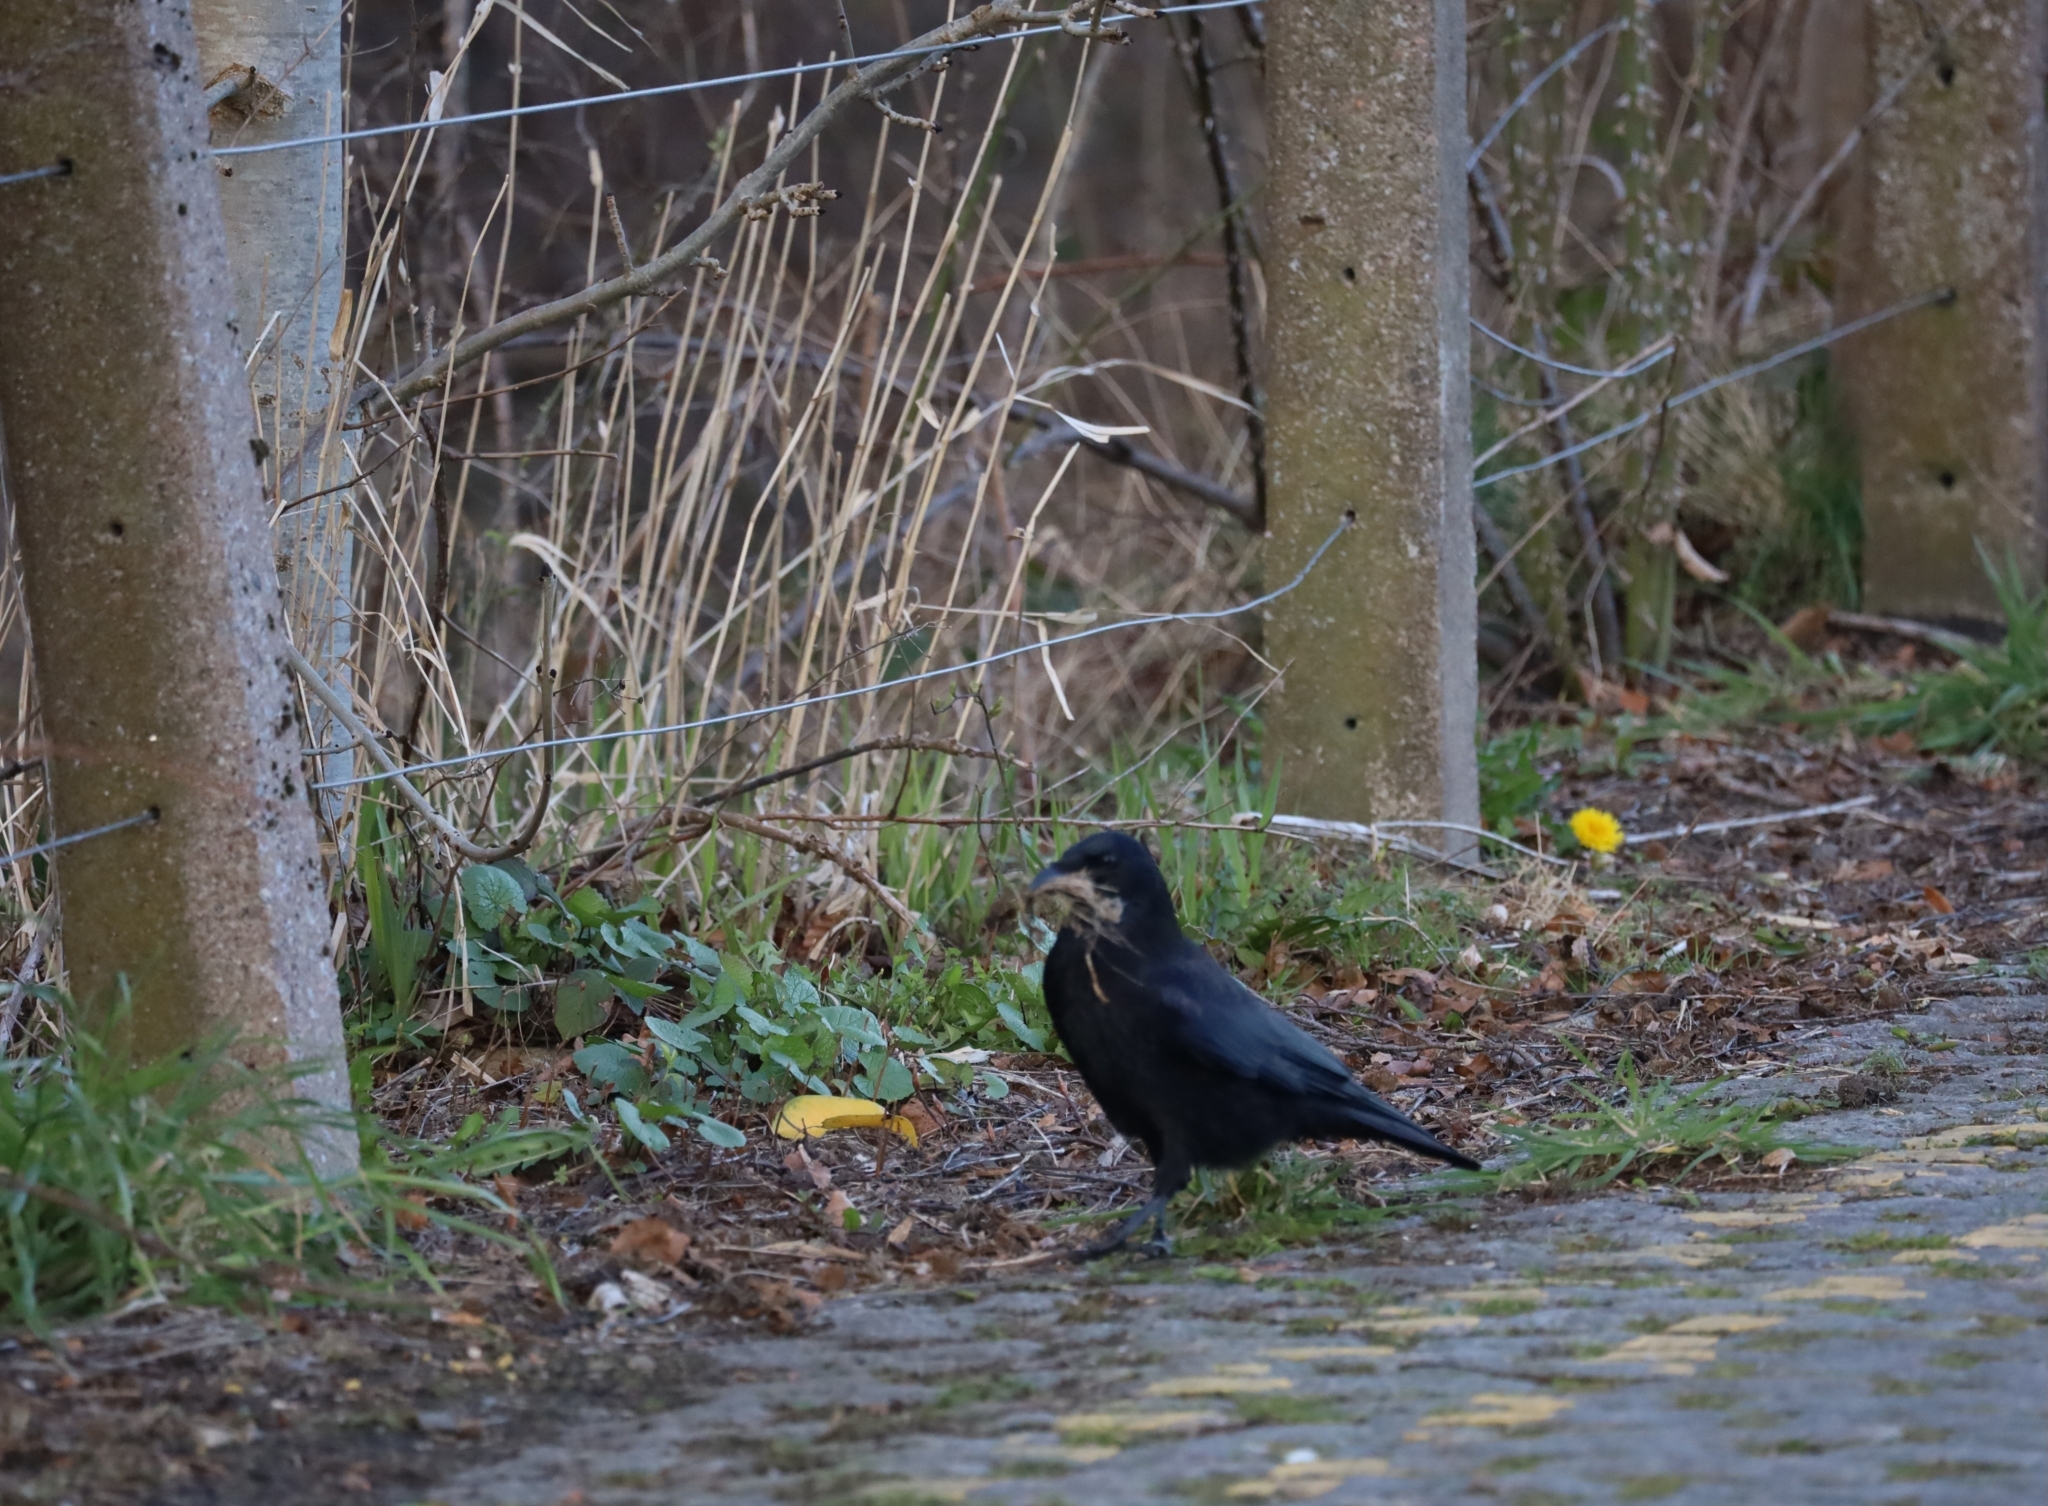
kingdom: Animalia
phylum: Chordata
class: Aves
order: Passeriformes
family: Corvidae
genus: Corvus
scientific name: Corvus corone
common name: Carrion crow
